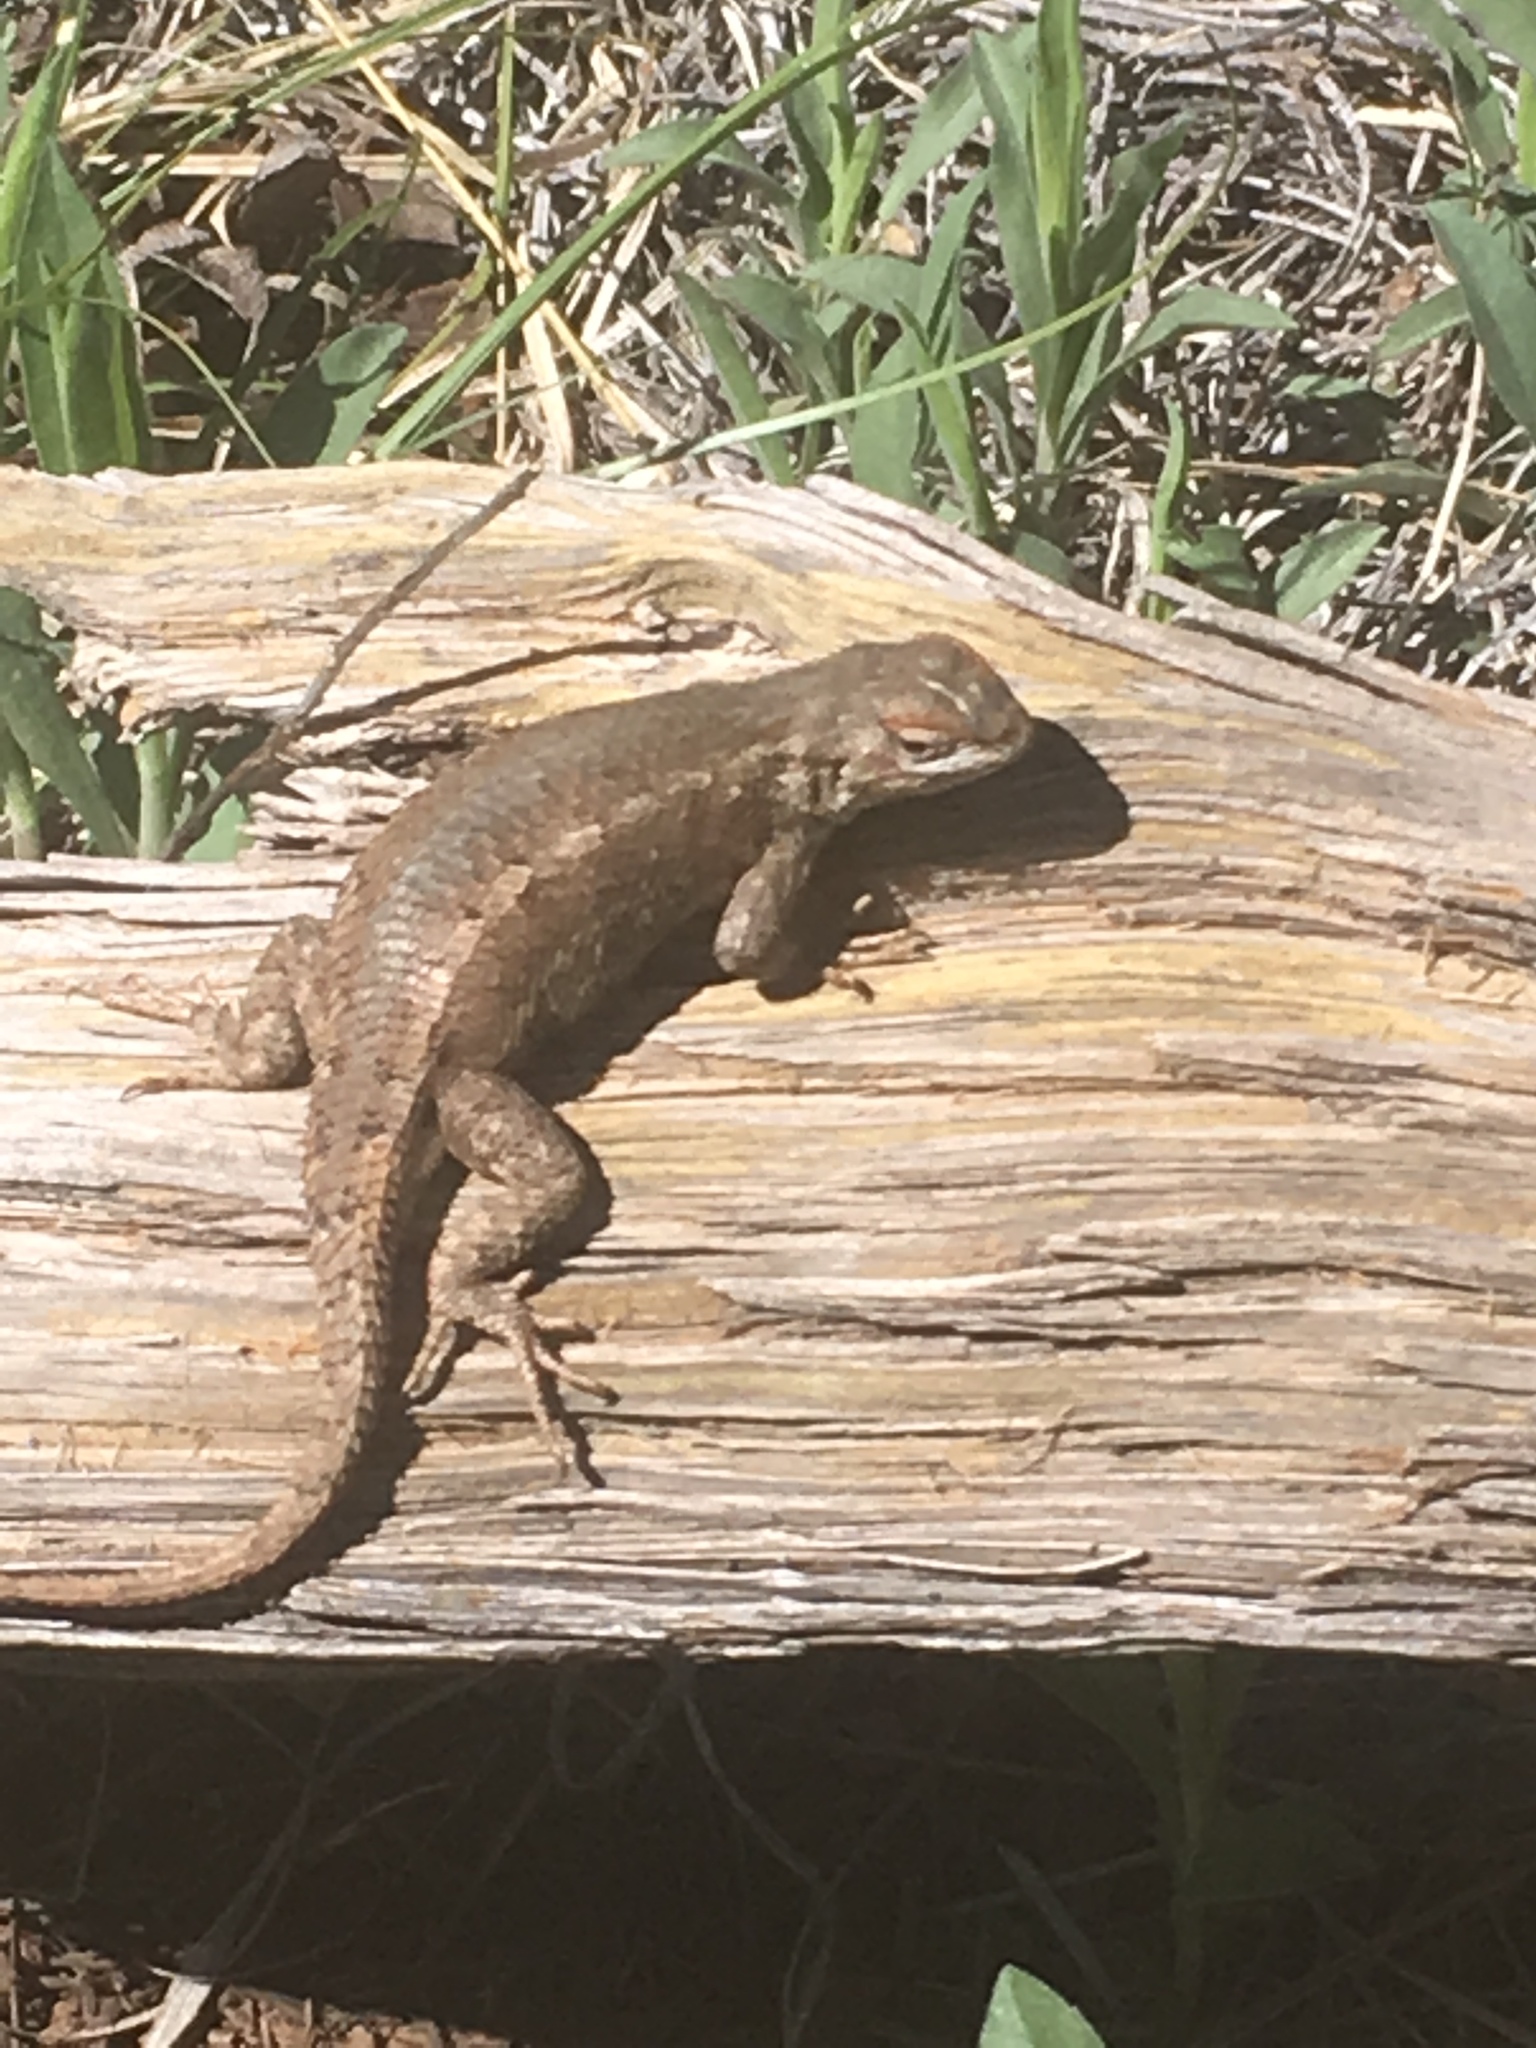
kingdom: Animalia
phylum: Chordata
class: Squamata
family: Phrynosomatidae
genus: Sceloporus
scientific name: Sceloporus tristichus
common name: Plateau fence lizard
